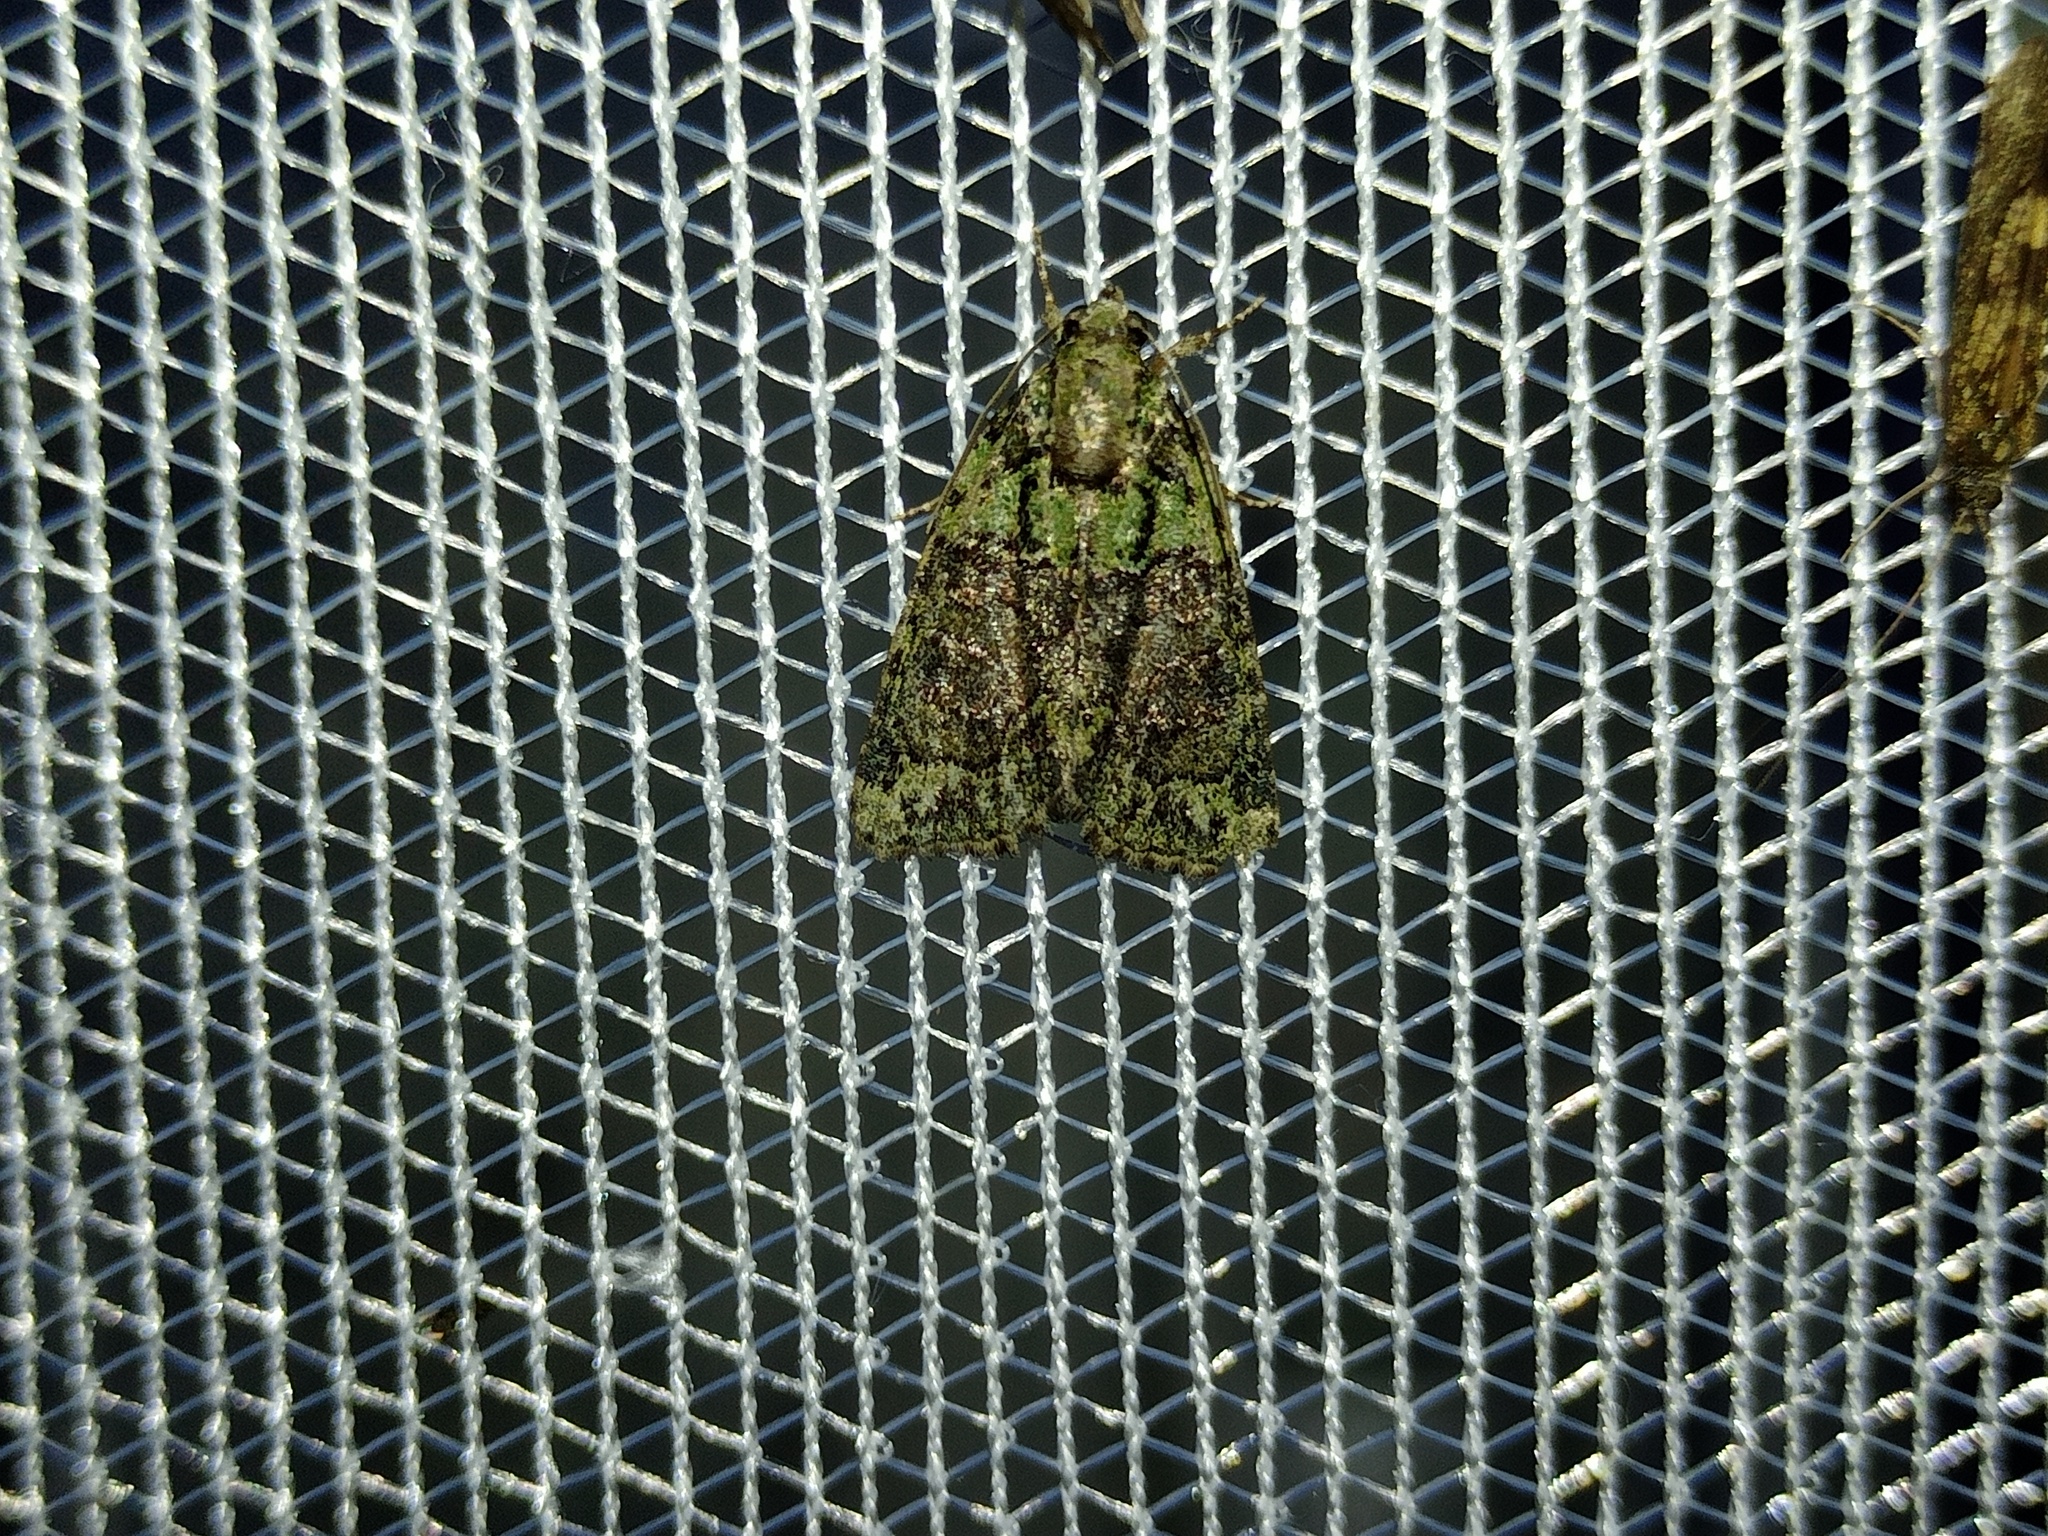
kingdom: Animalia
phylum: Arthropoda
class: Insecta
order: Lepidoptera
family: Noctuidae
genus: Cryphia
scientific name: Cryphia algae
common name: Tree-lichen beauty
